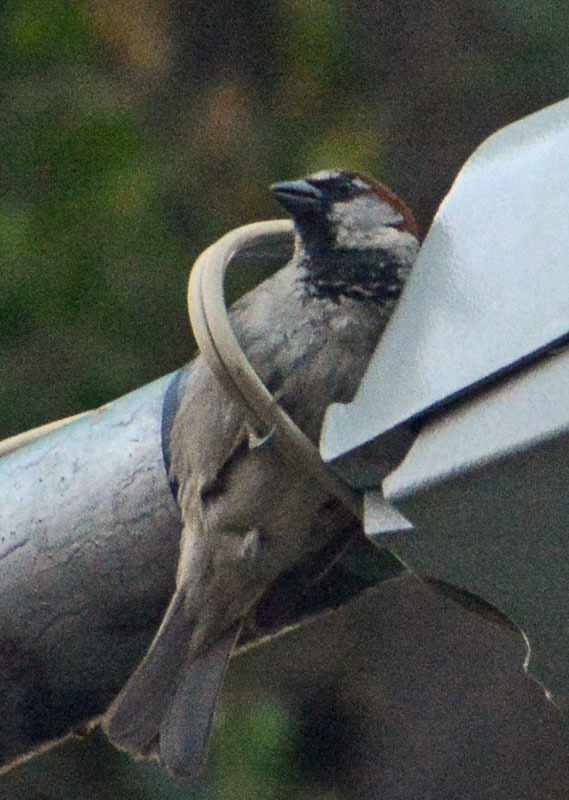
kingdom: Animalia
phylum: Chordata
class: Aves
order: Passeriformes
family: Passeridae
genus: Passer
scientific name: Passer domesticus
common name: House sparrow
